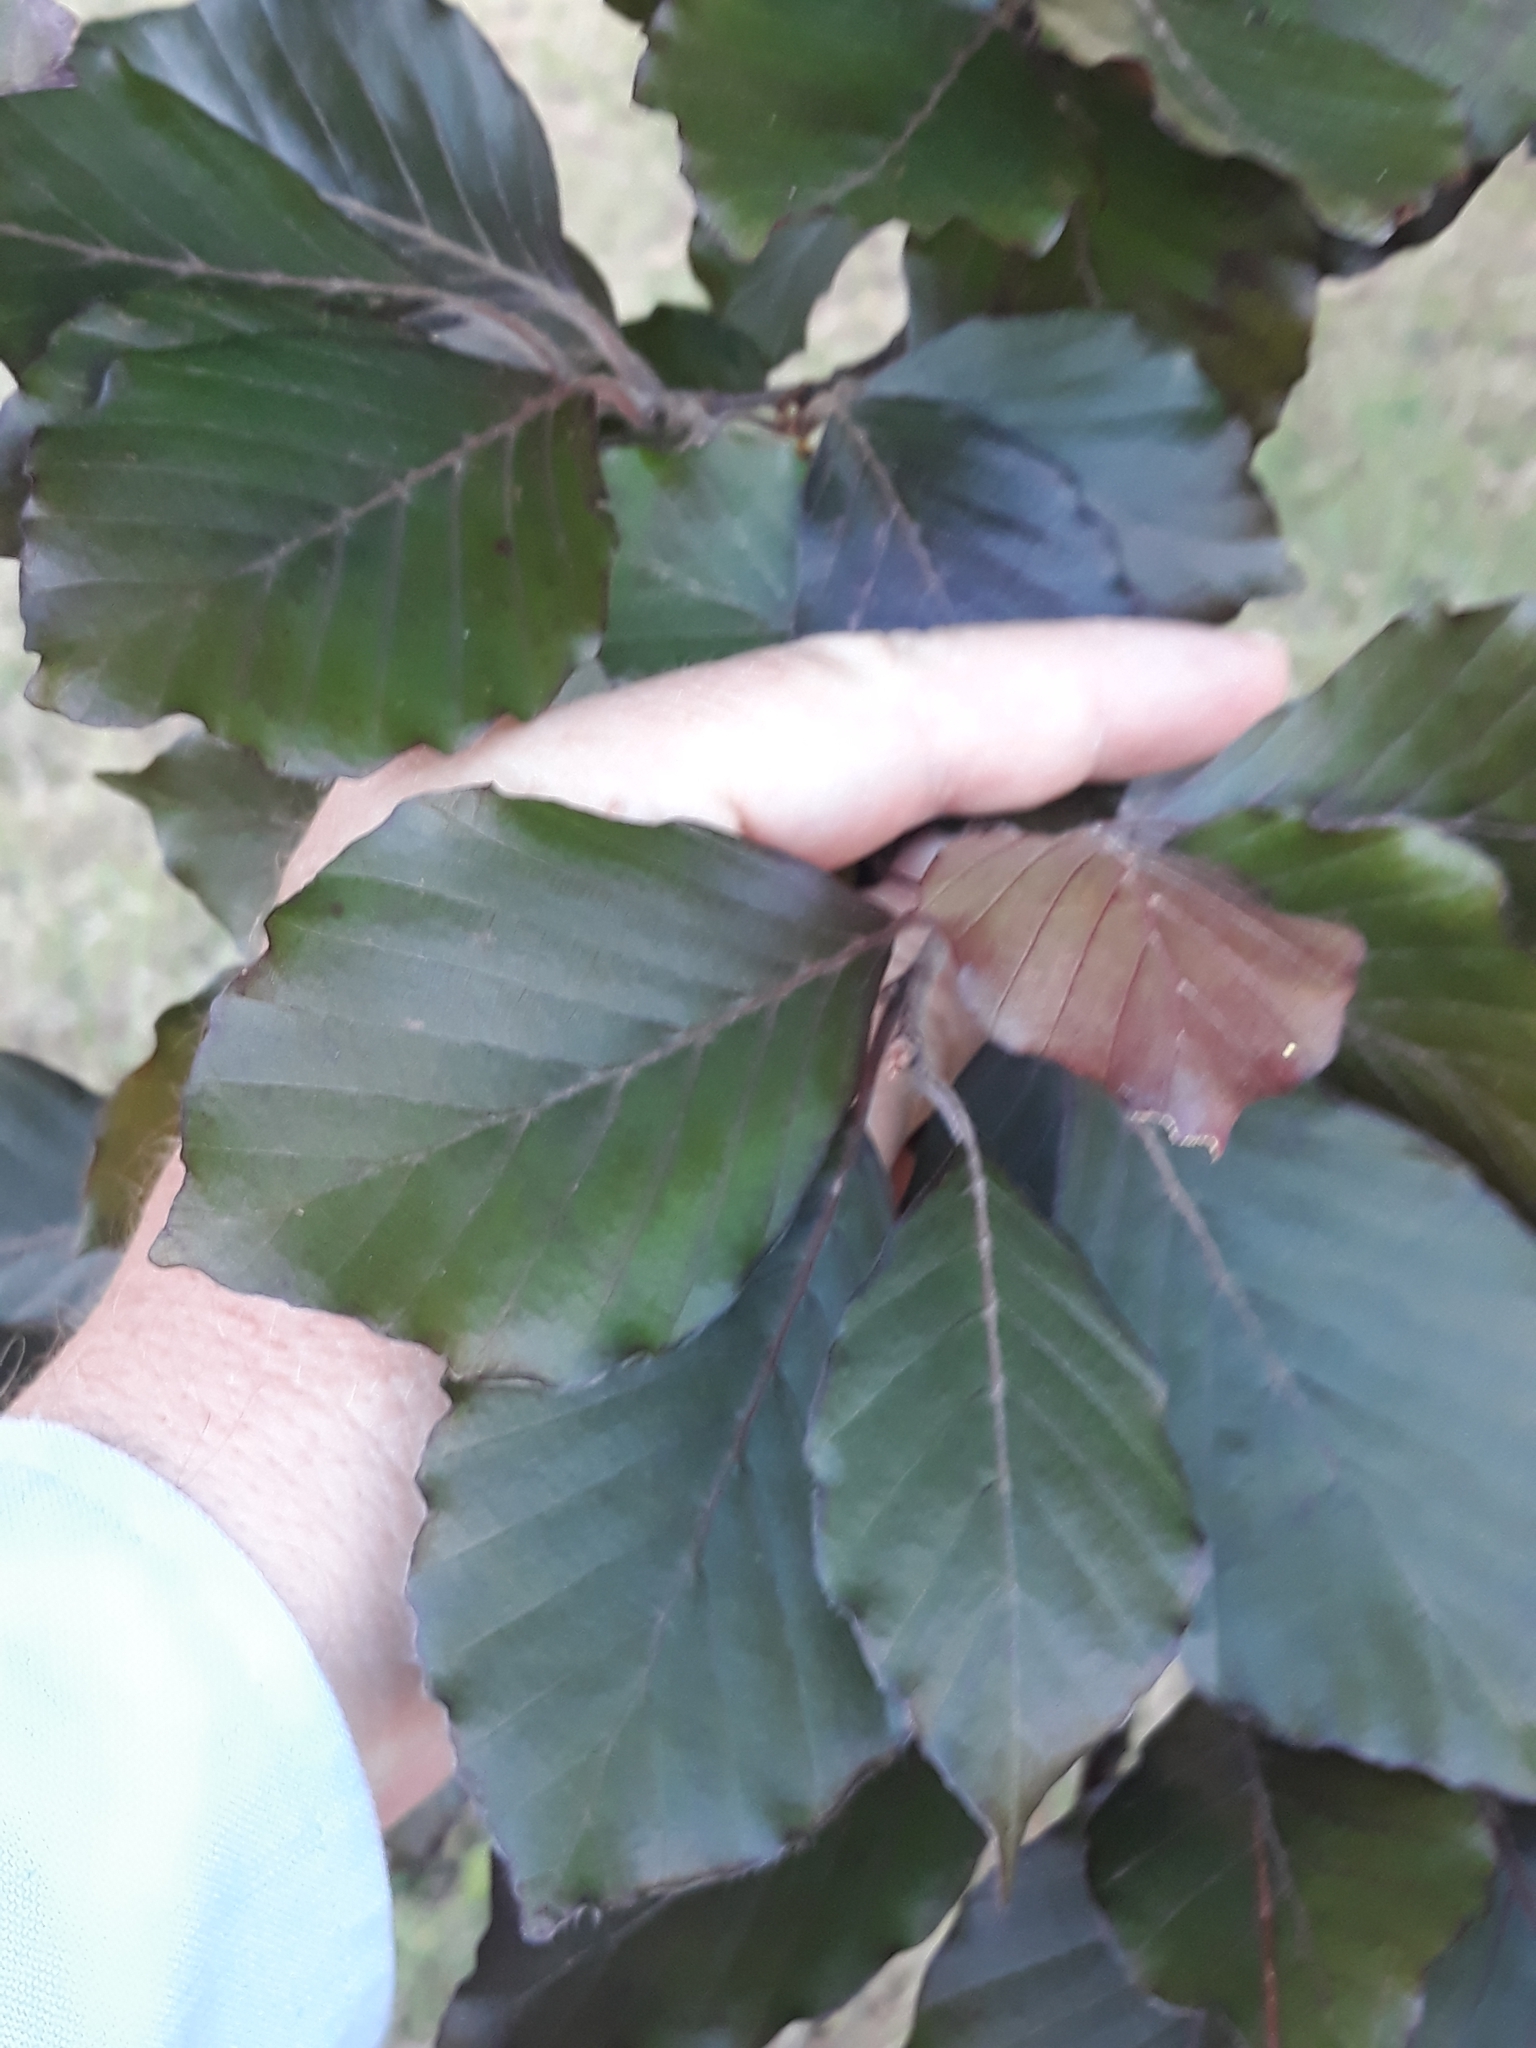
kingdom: Plantae
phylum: Tracheophyta
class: Magnoliopsida
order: Fagales
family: Fagaceae
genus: Fagus
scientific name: Fagus sylvatica
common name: Beech
